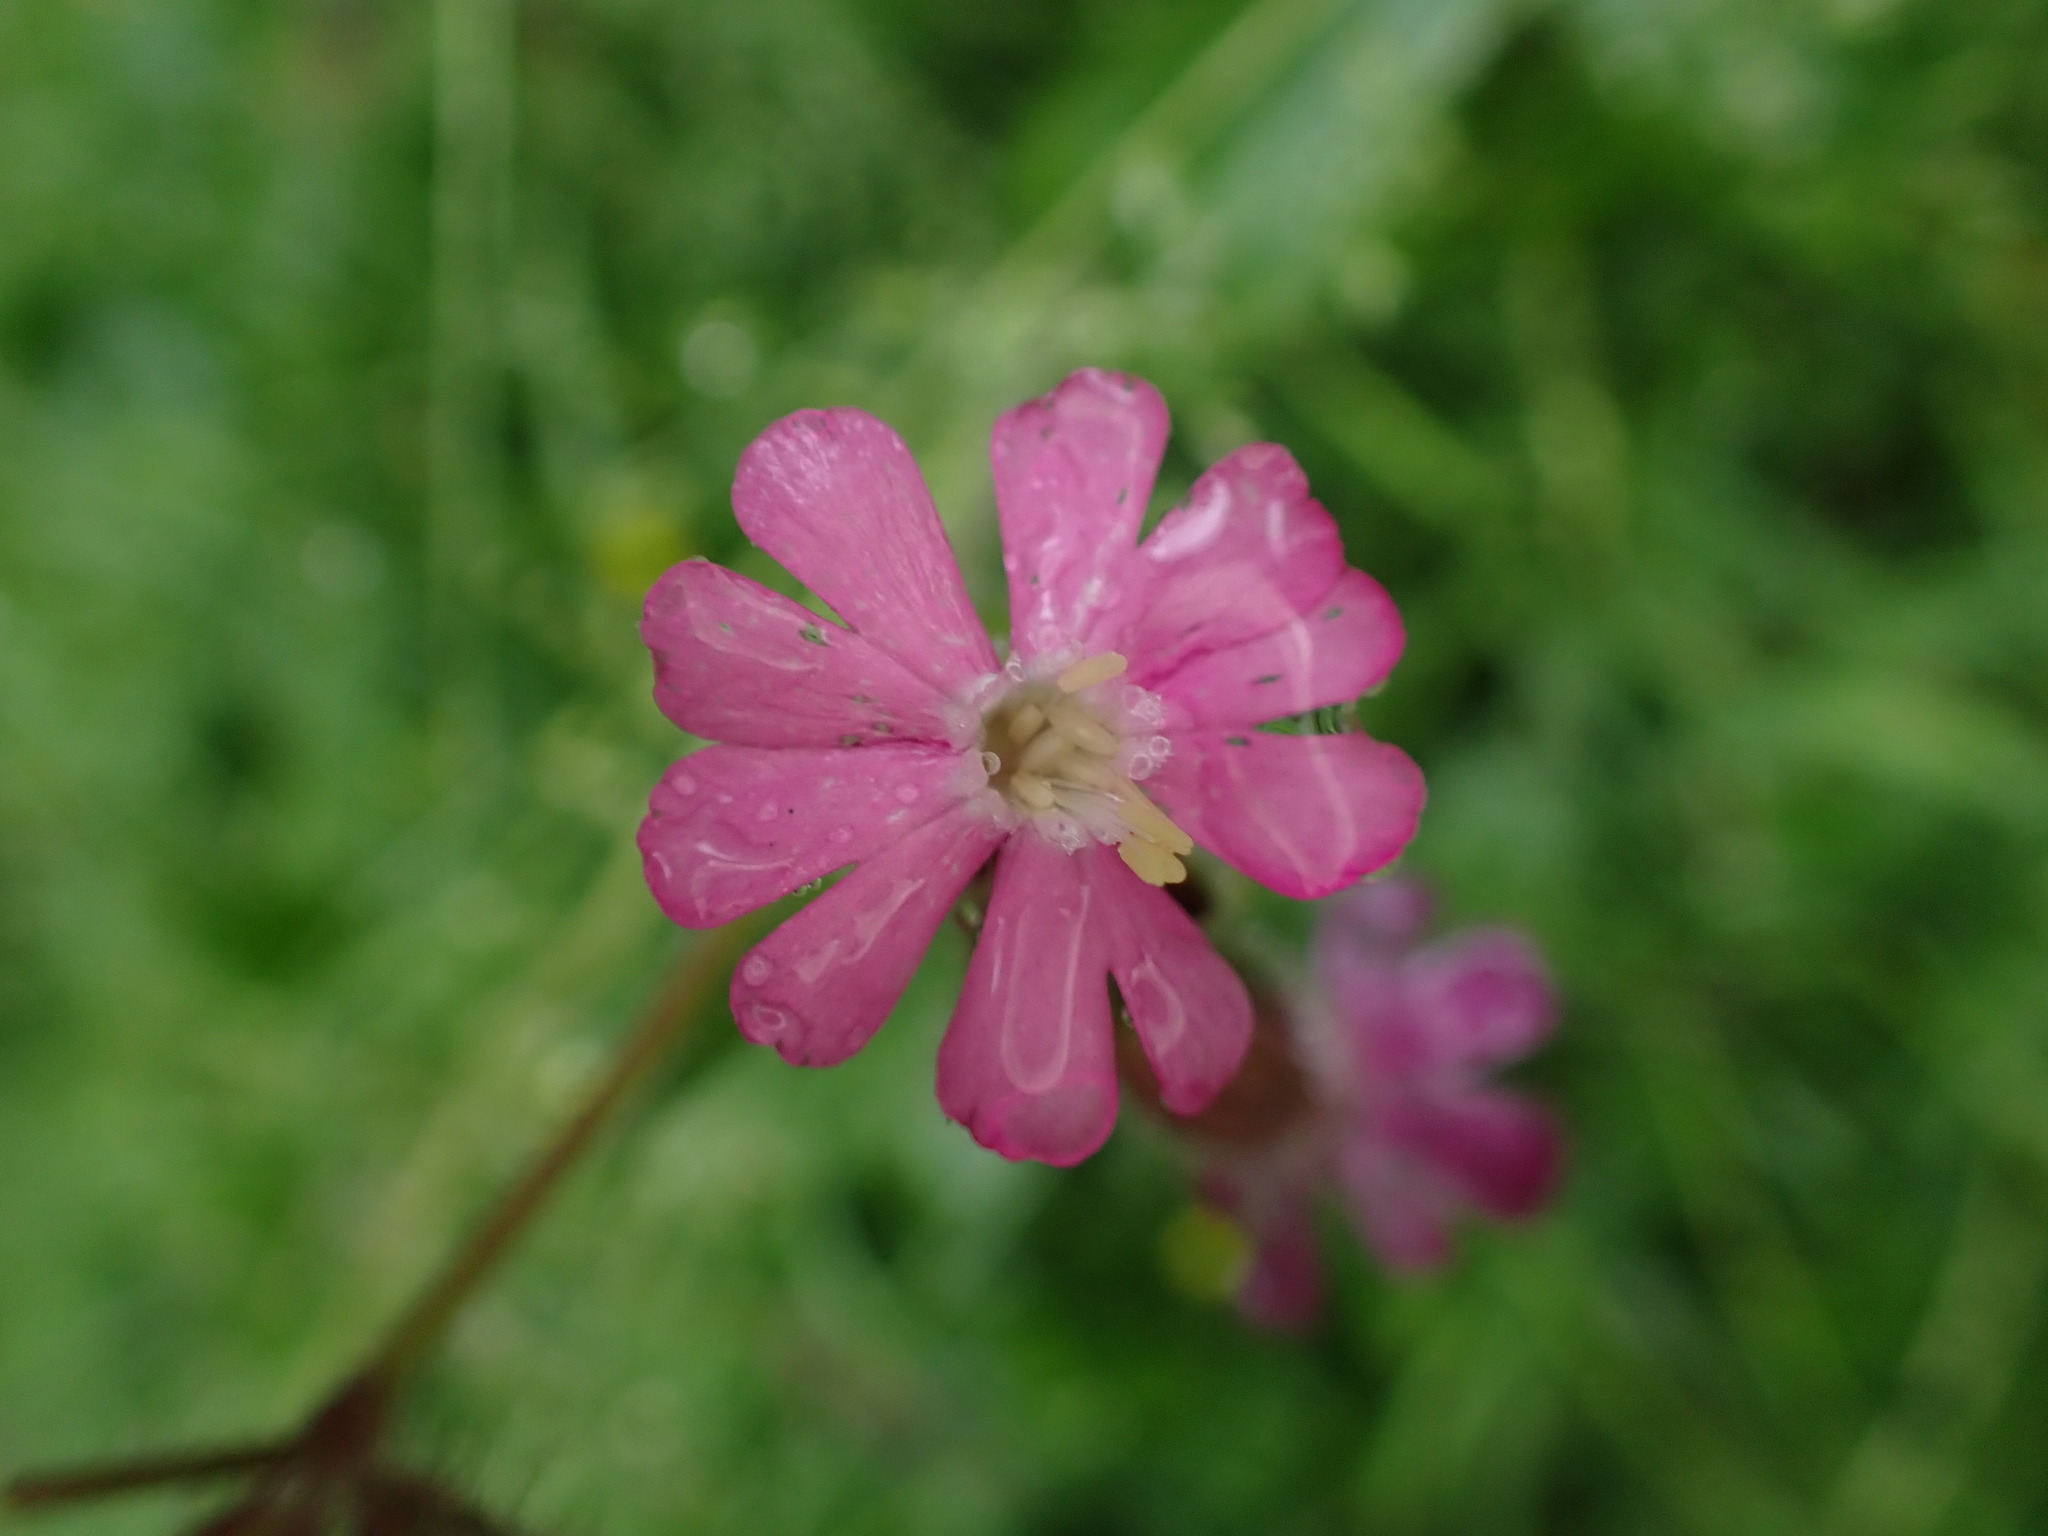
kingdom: Plantae
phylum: Tracheophyta
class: Magnoliopsida
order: Caryophyllales
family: Caryophyllaceae
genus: Silene
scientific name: Silene dioica
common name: Red campion
